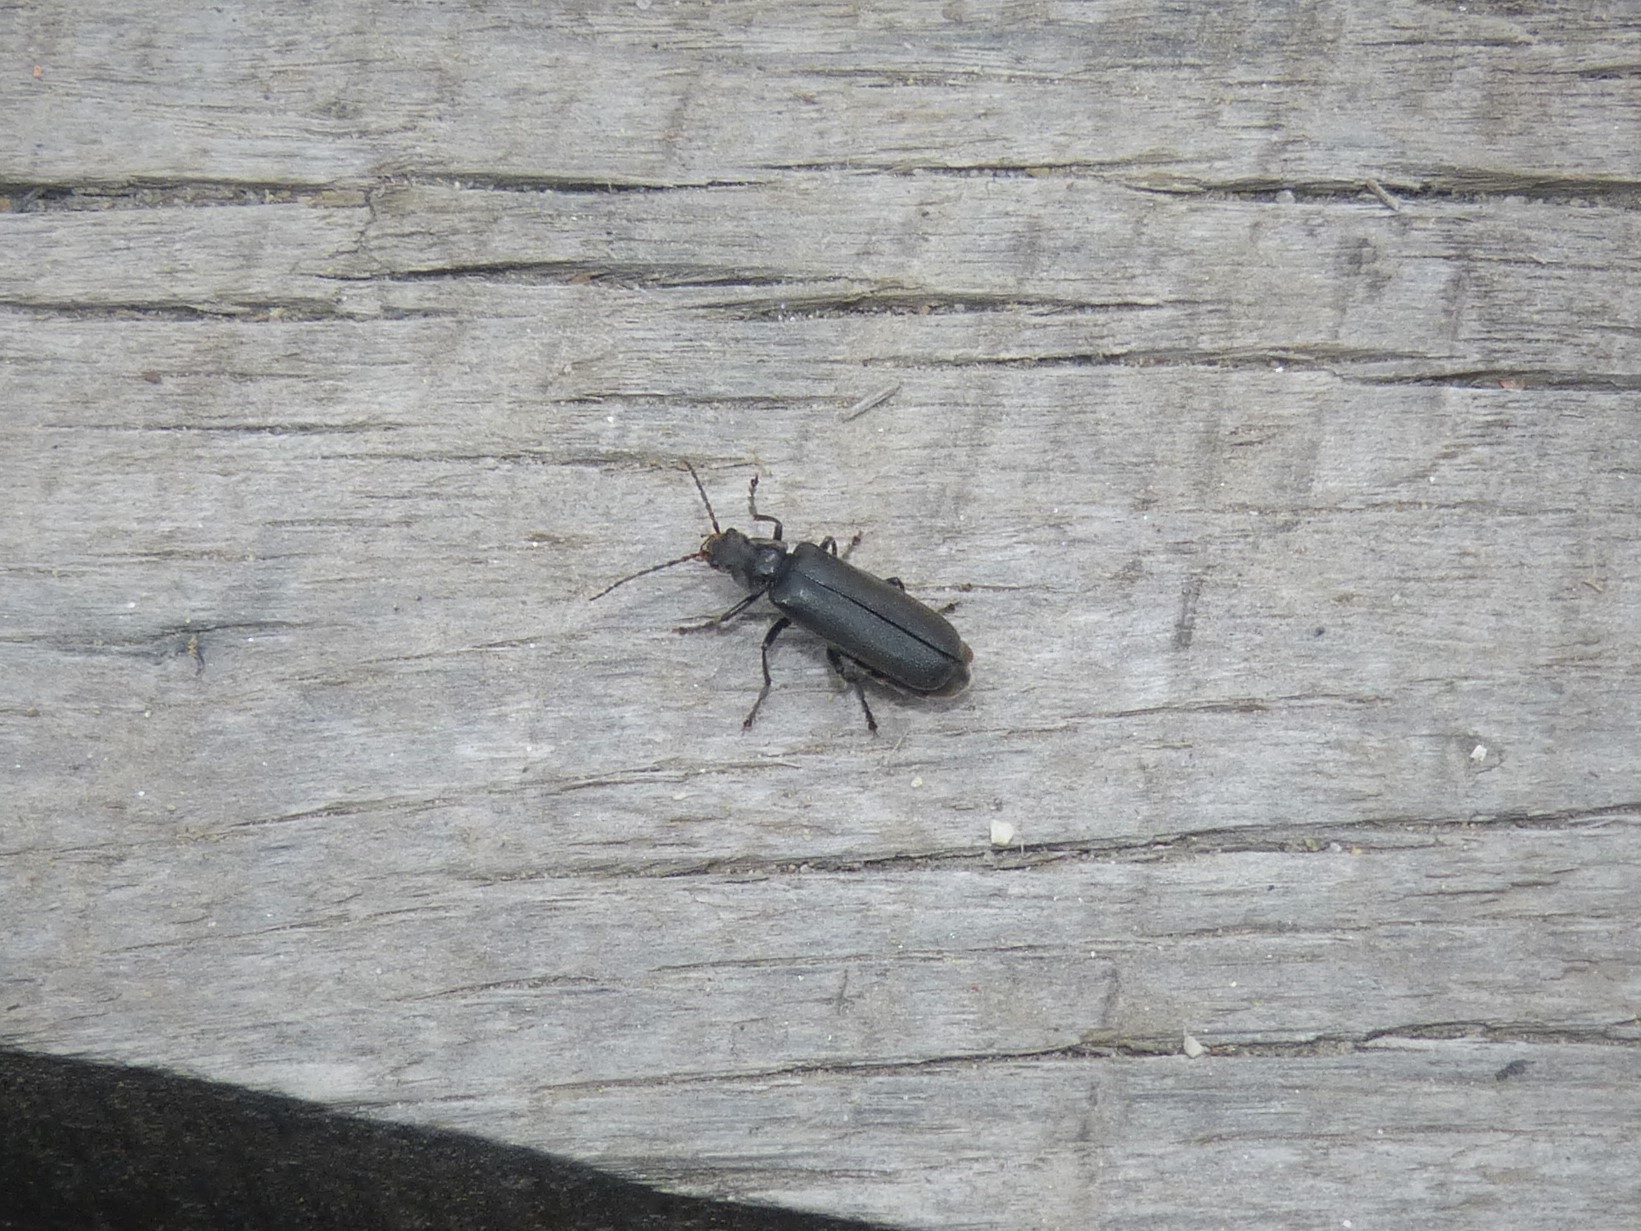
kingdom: Animalia
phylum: Arthropoda
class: Insecta
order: Coleoptera
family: Cantharidae
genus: Cantharis
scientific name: Cantharis tristis
